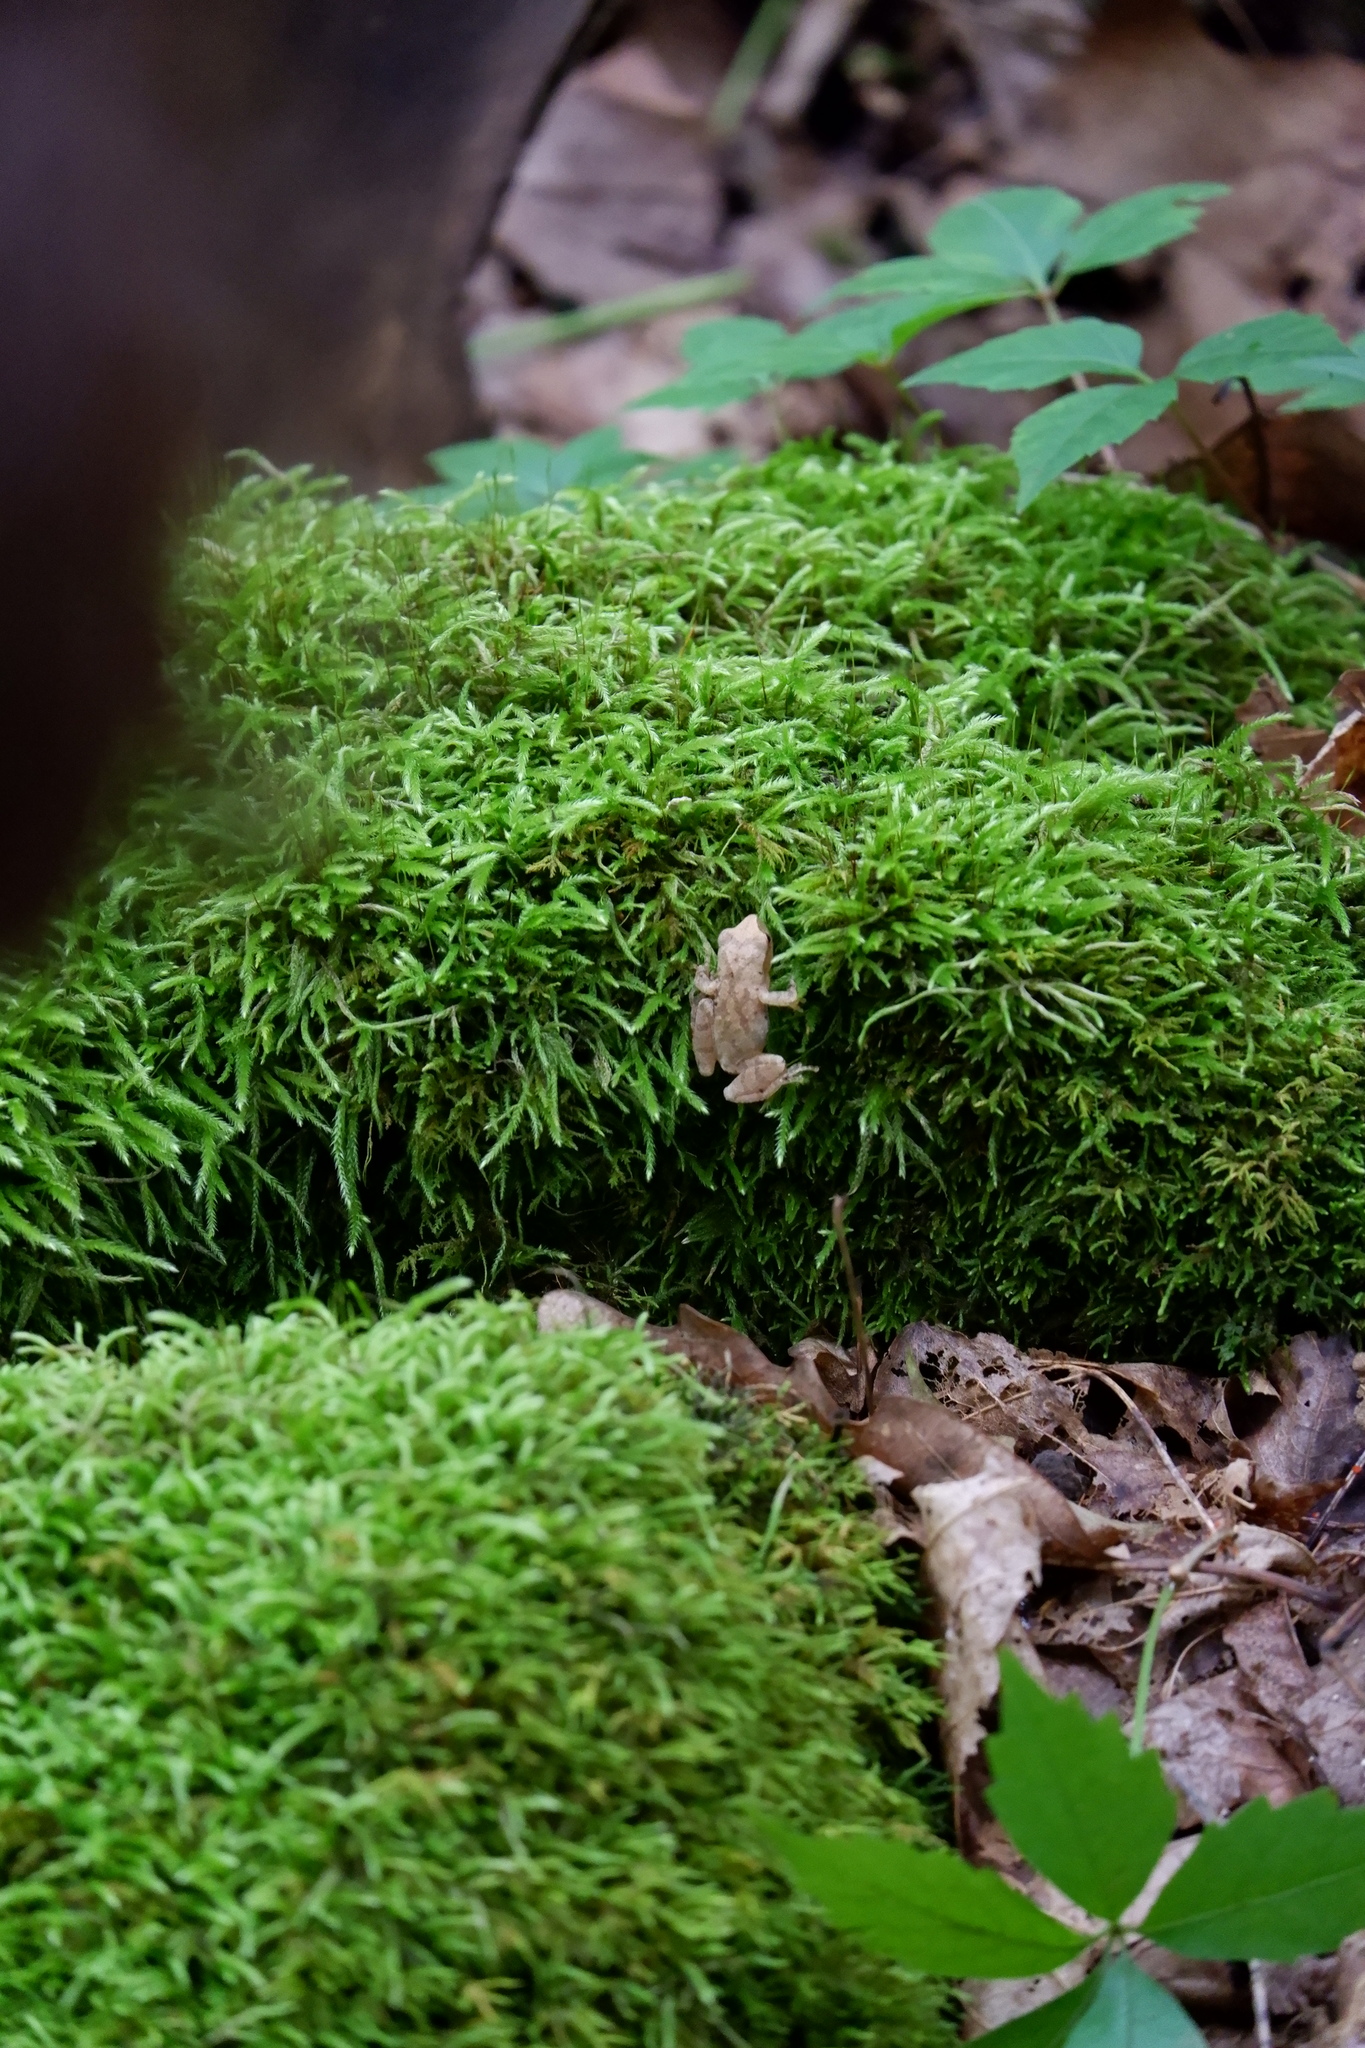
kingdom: Animalia
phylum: Chordata
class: Amphibia
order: Anura
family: Hylidae
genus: Pseudacris
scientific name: Pseudacris crucifer
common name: Spring peeper
